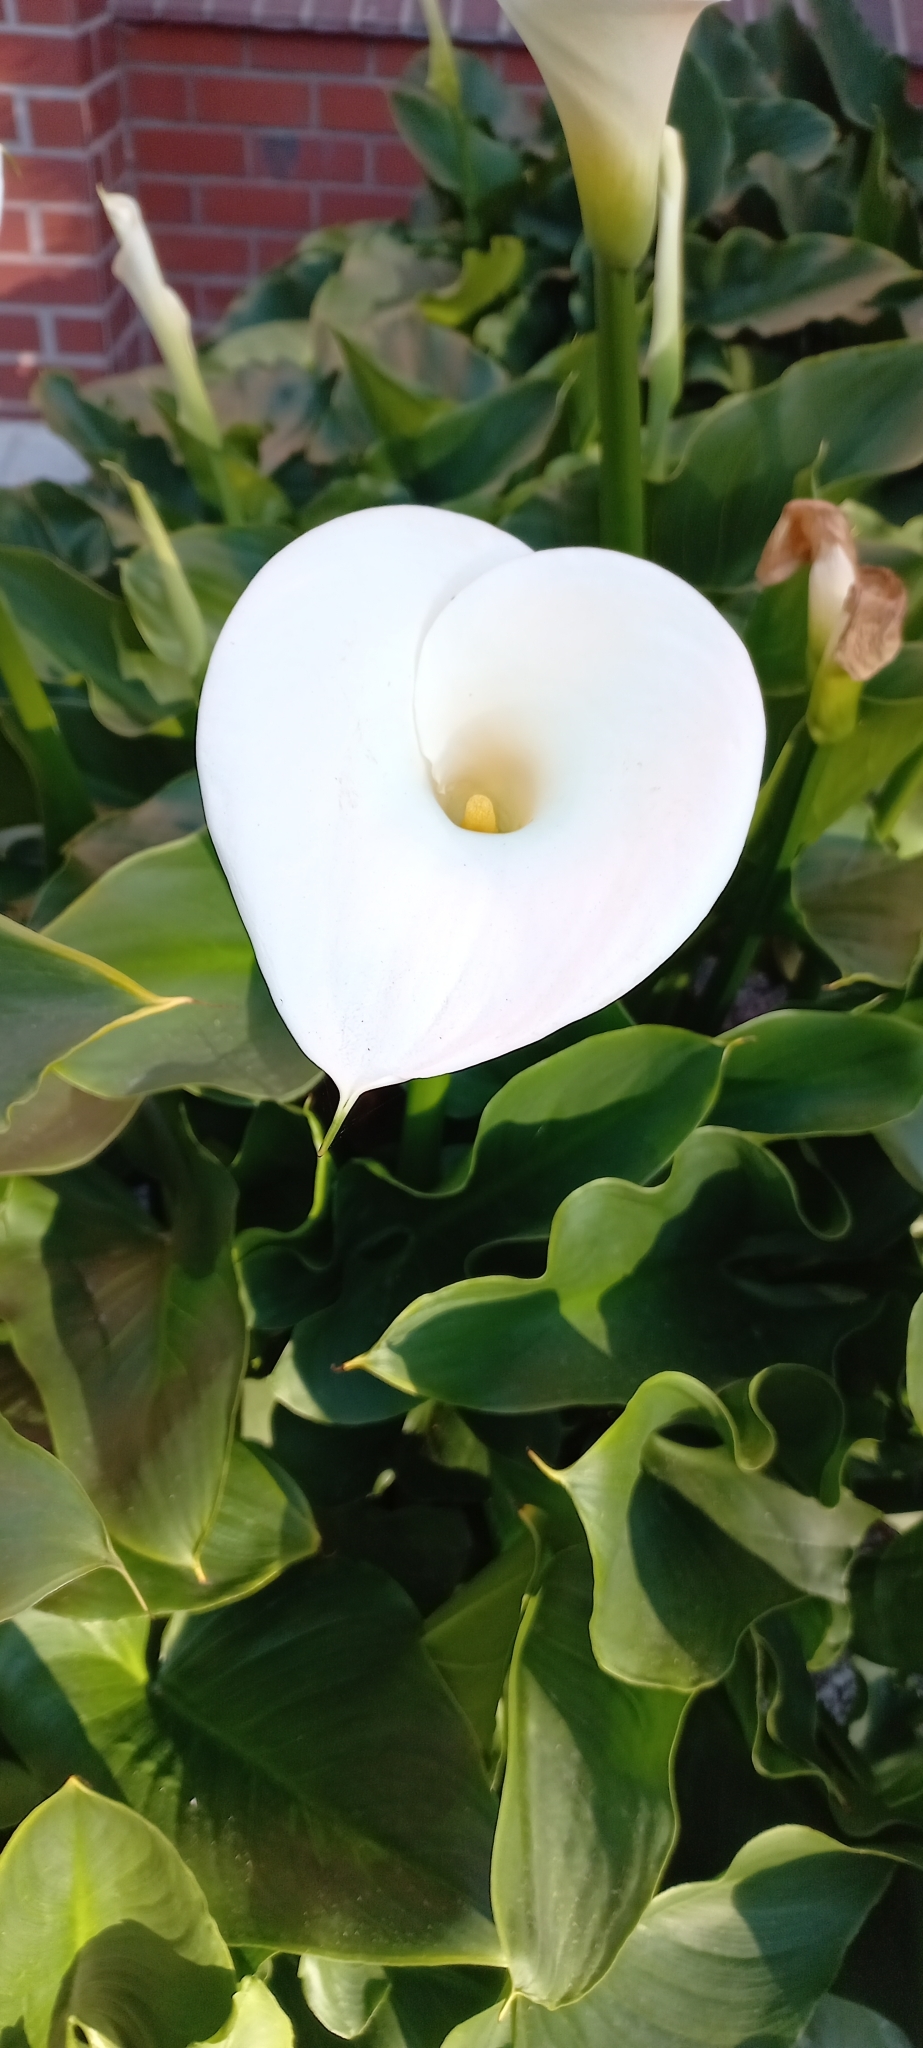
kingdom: Plantae
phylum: Tracheophyta
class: Liliopsida
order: Alismatales
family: Araceae
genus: Zantedeschia
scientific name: Zantedeschia aethiopica
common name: Altar-lily
